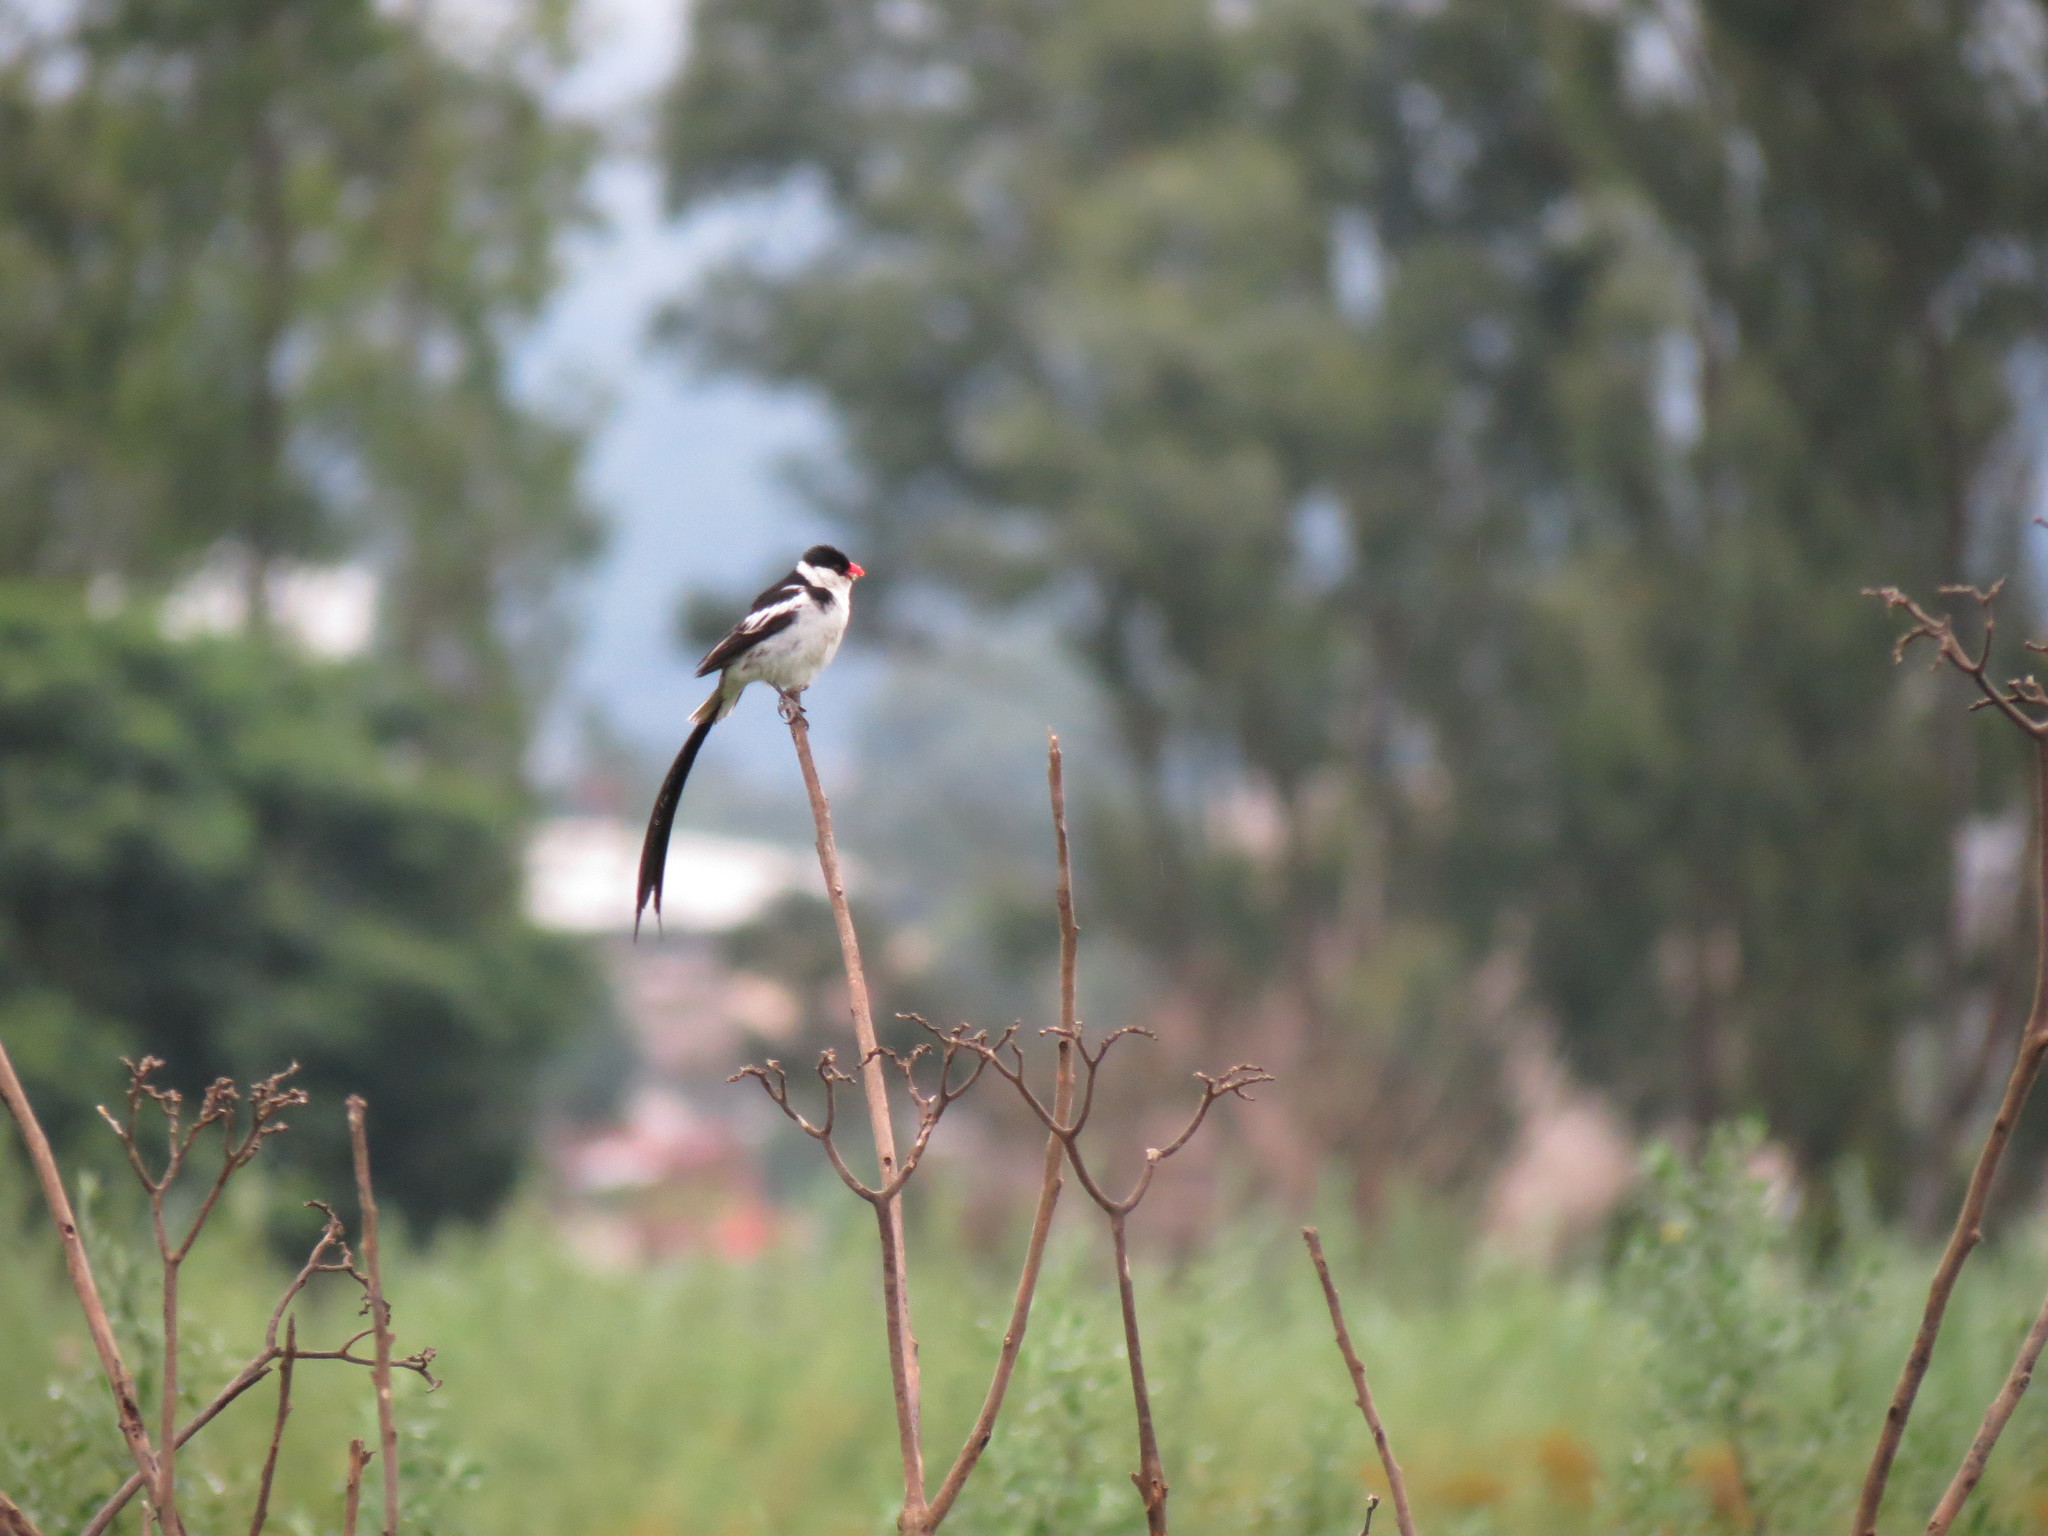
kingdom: Animalia
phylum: Chordata
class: Aves
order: Passeriformes
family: Viduidae
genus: Vidua
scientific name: Vidua macroura
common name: Pin-tailed whydah
